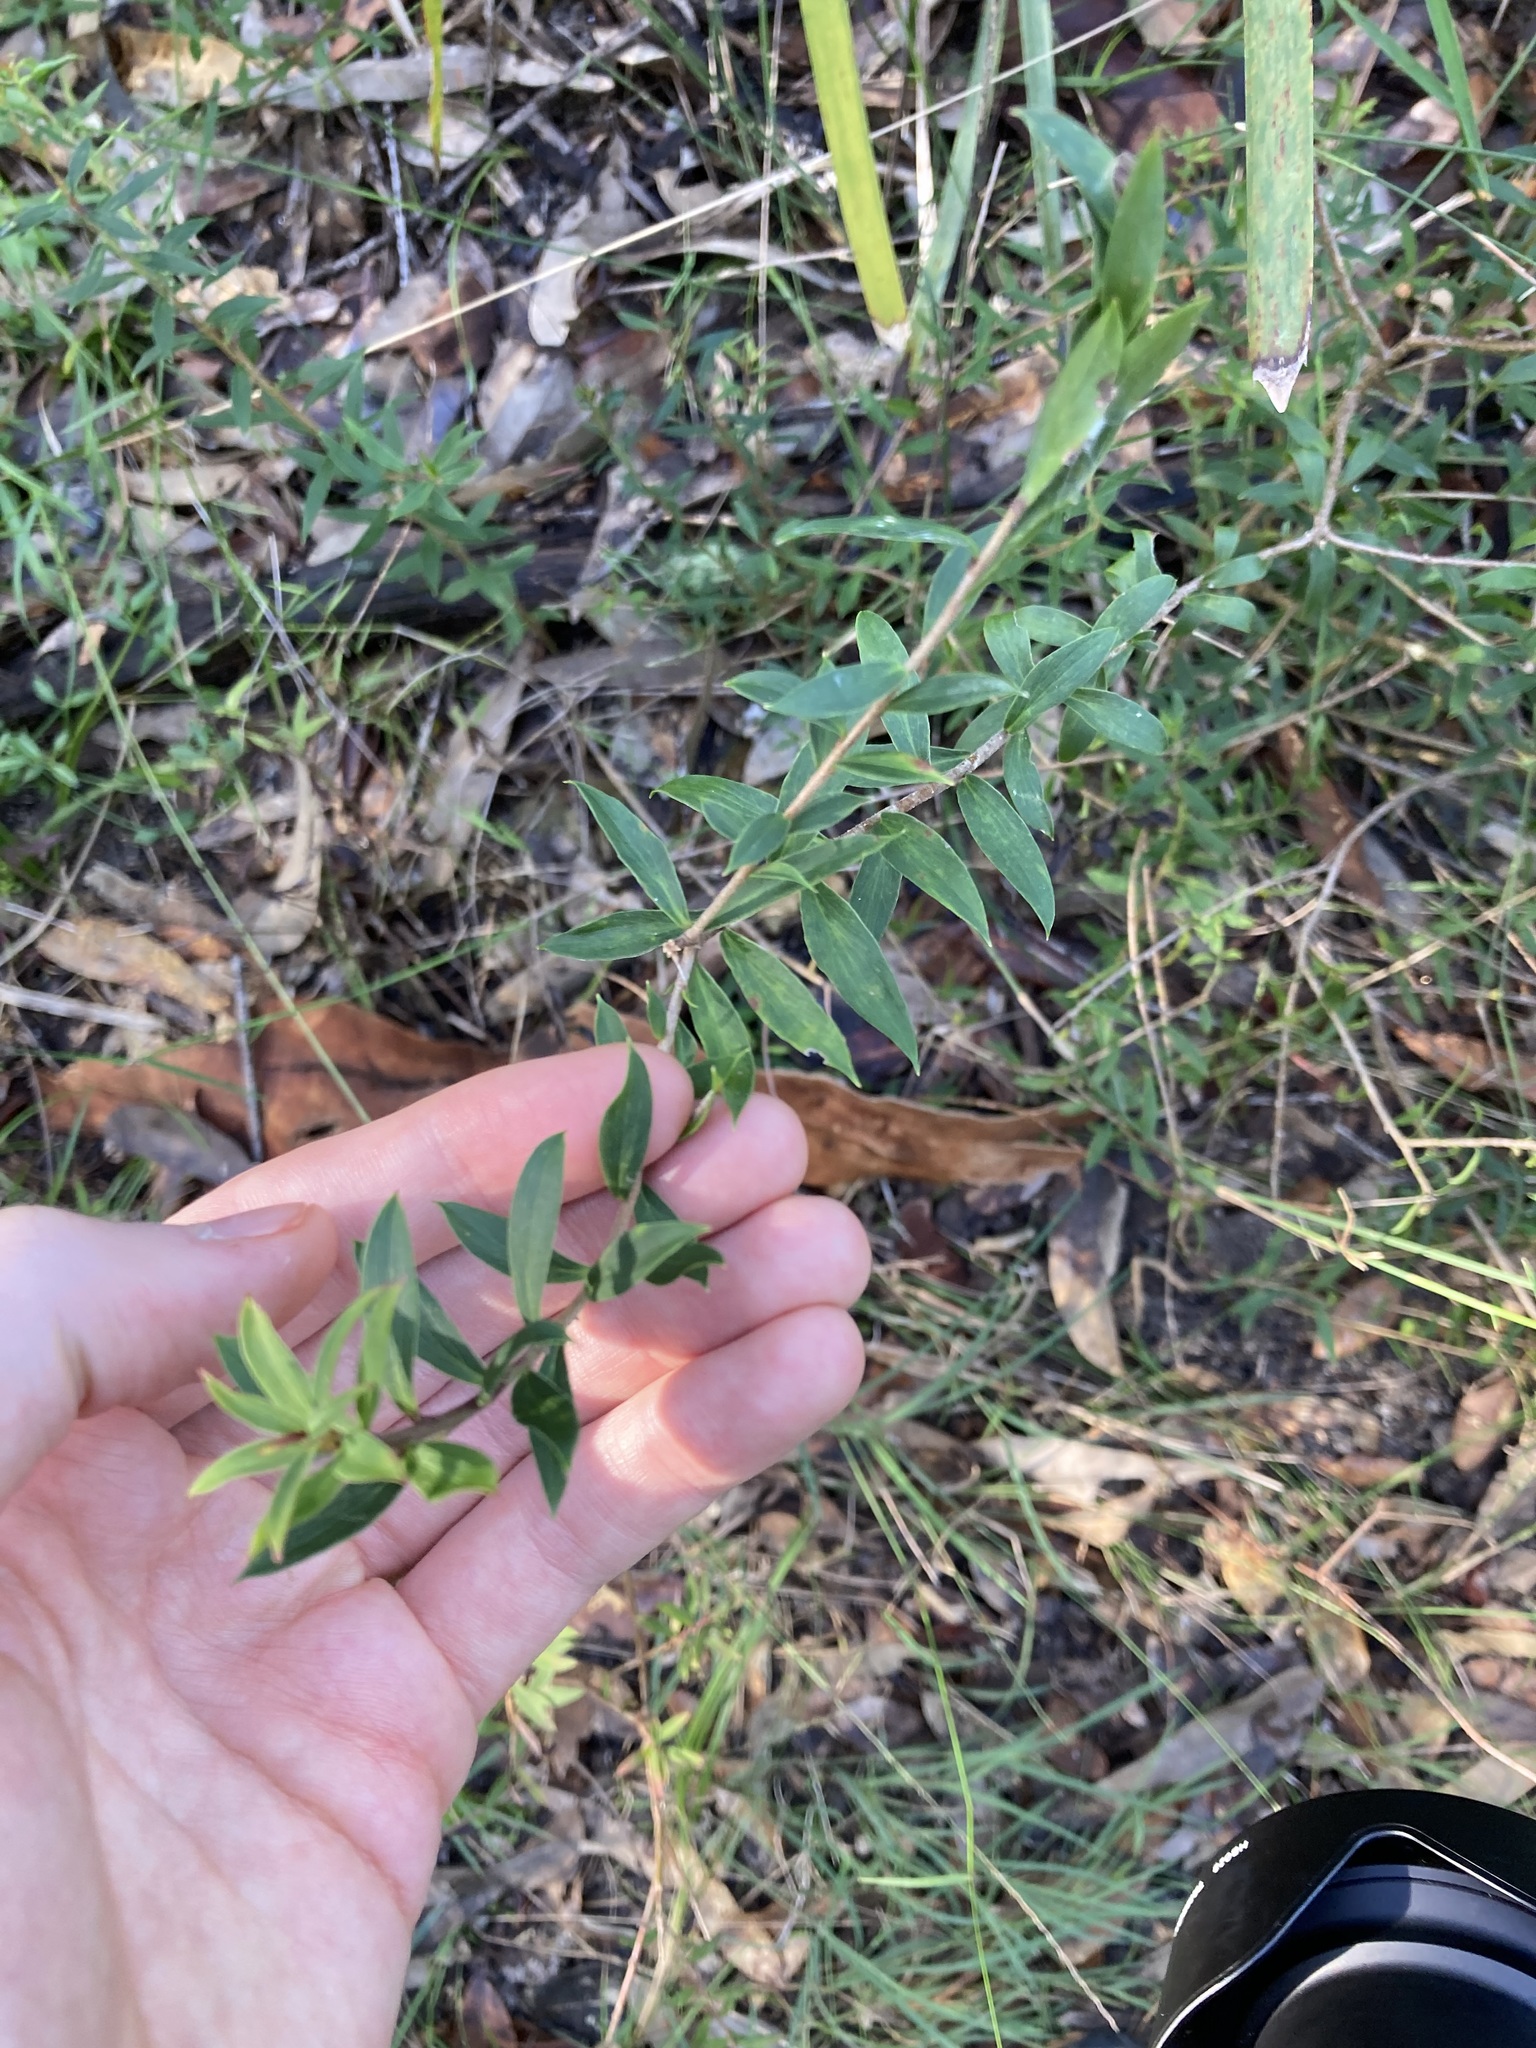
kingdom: Plantae
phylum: Tracheophyta
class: Magnoliopsida
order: Apiales
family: Apiaceae
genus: Platysace
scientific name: Platysace lanceolata
